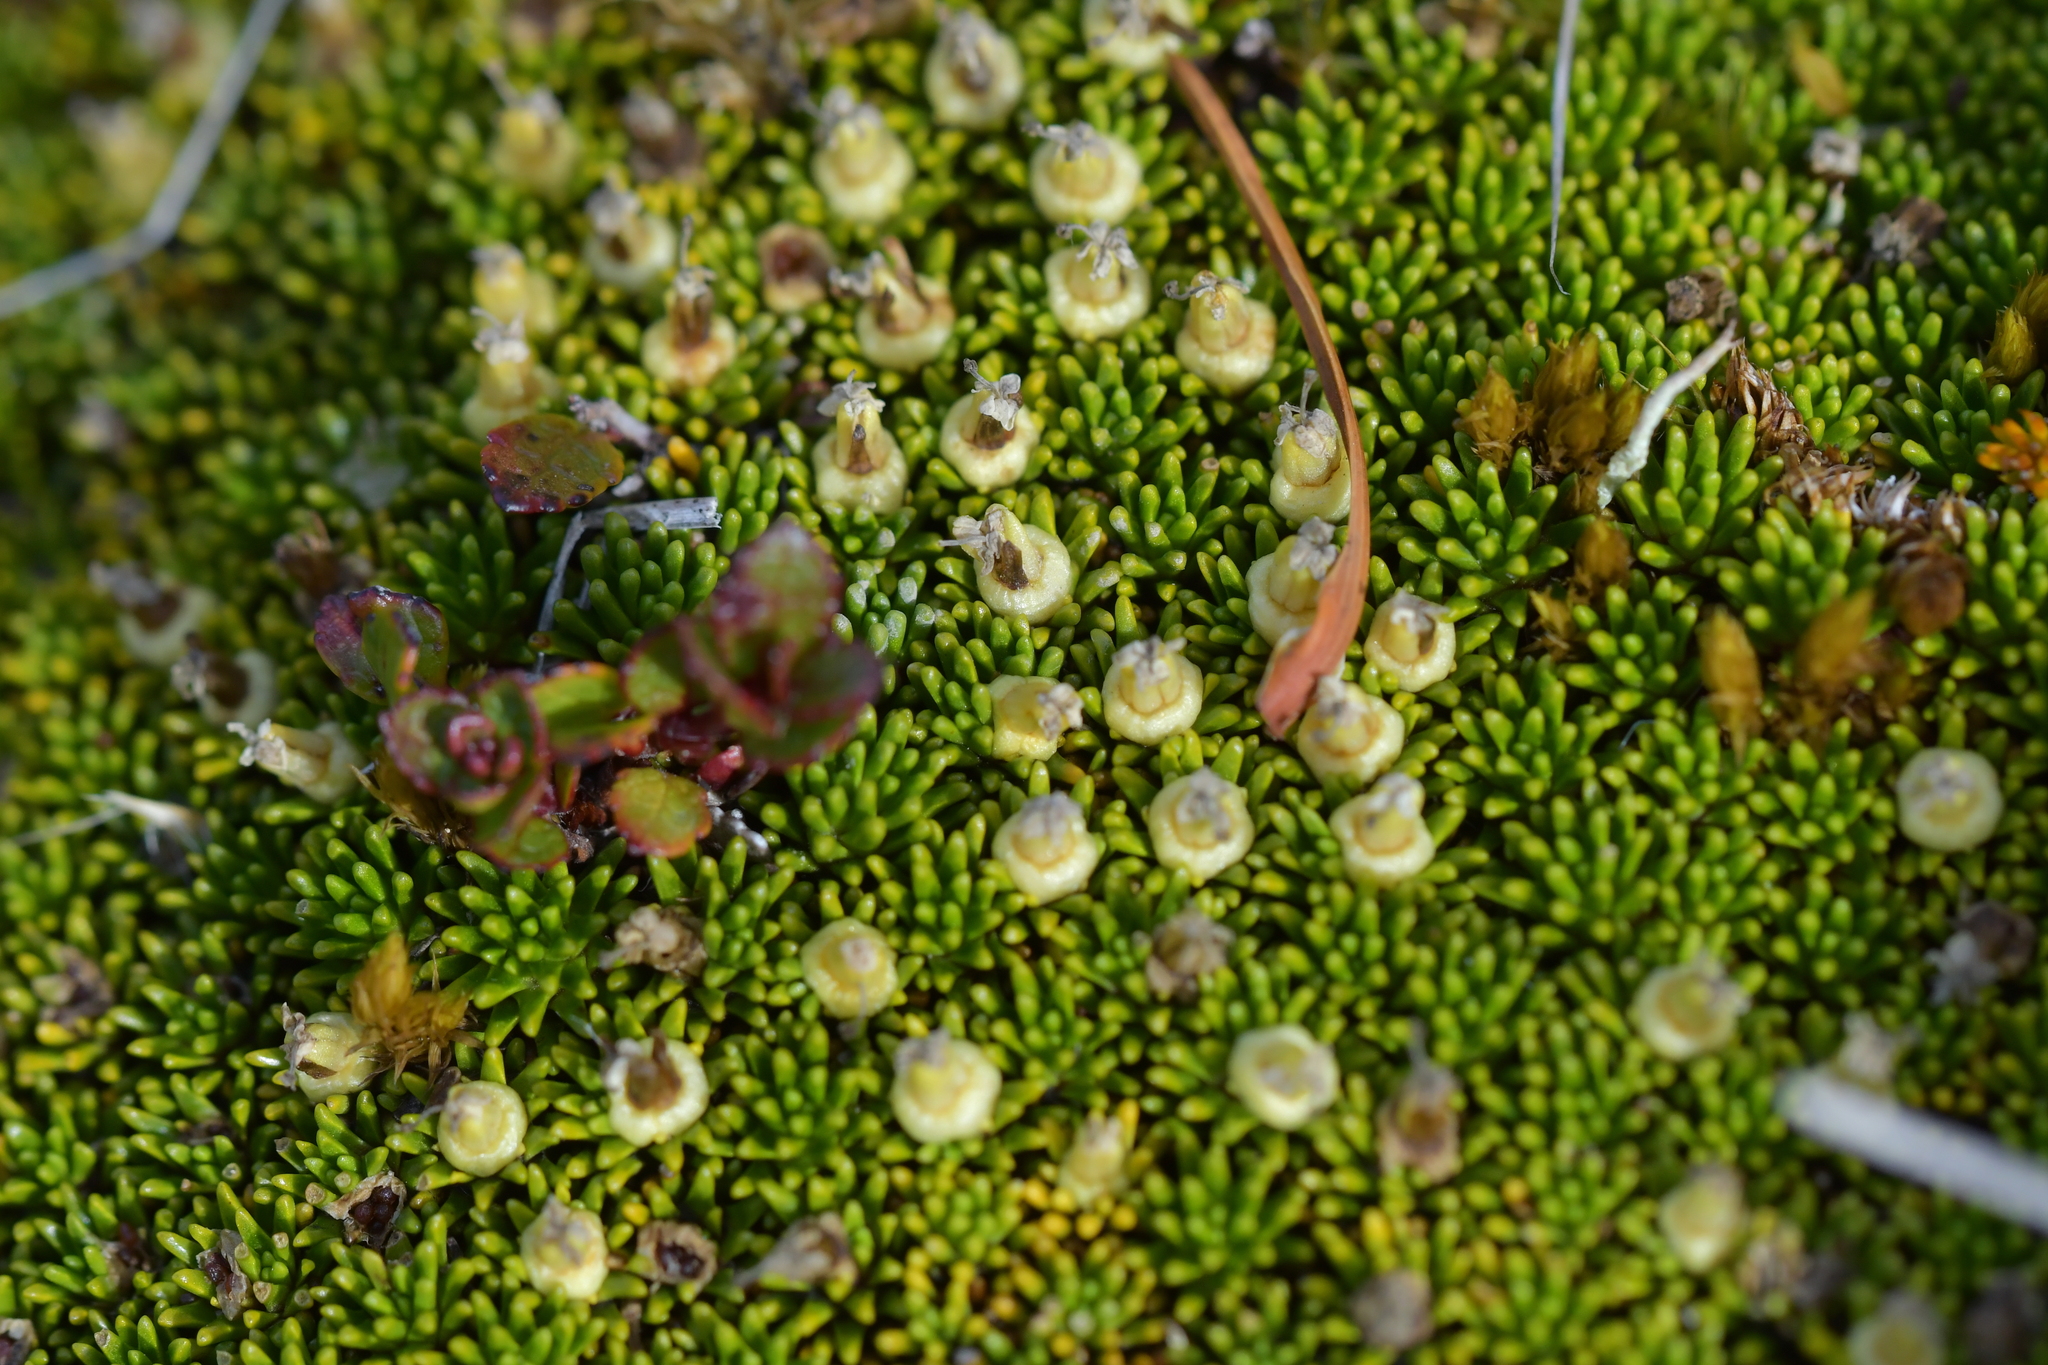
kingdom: Plantae
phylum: Tracheophyta
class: Magnoliopsida
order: Asterales
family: Stylidiaceae
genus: Phyllachne
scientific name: Phyllachne colensoi
